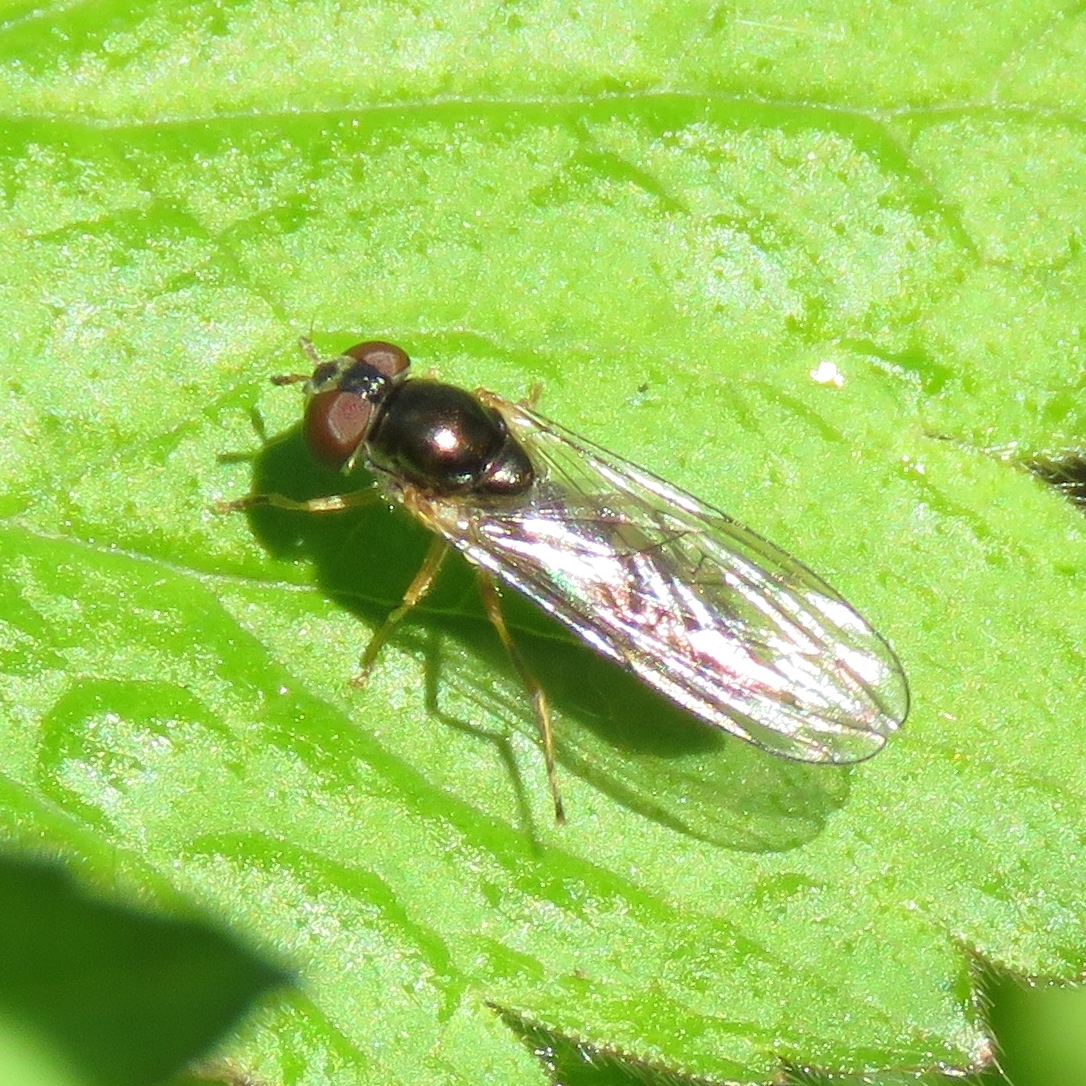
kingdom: Animalia
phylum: Arthropoda
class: Insecta
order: Diptera
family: Syrphidae
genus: Melanostoma
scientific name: Melanostoma
